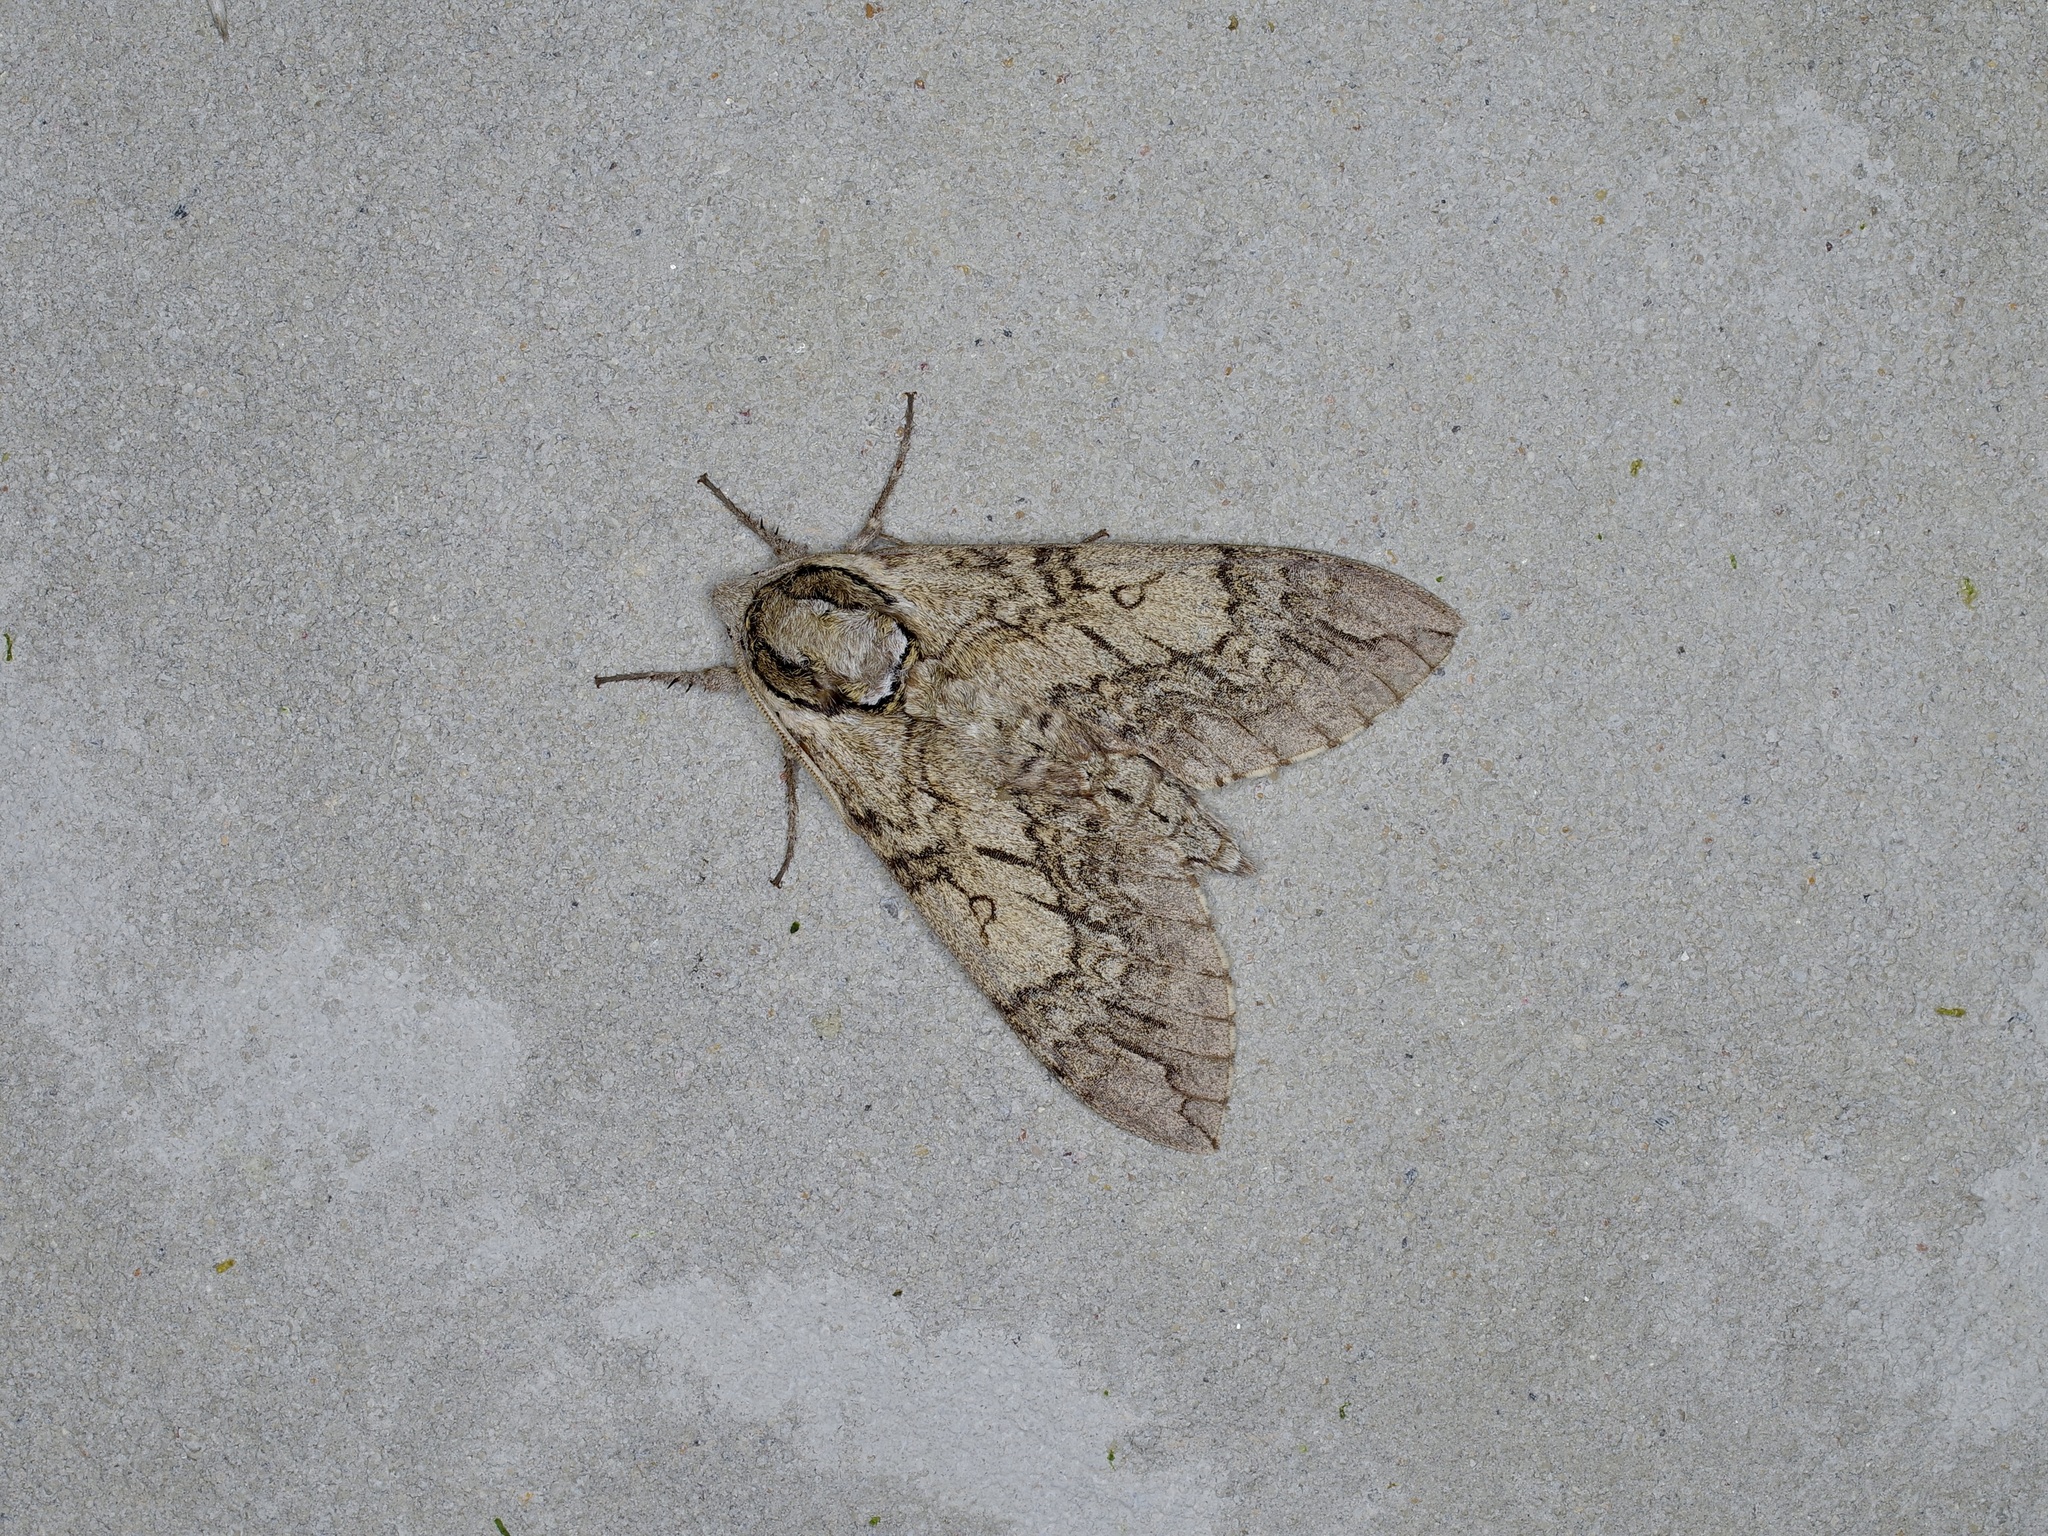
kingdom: Animalia
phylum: Arthropoda
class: Insecta
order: Lepidoptera
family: Sphingidae
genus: Ceratomia
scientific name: Ceratomia undulosa
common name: Waved sphinx
